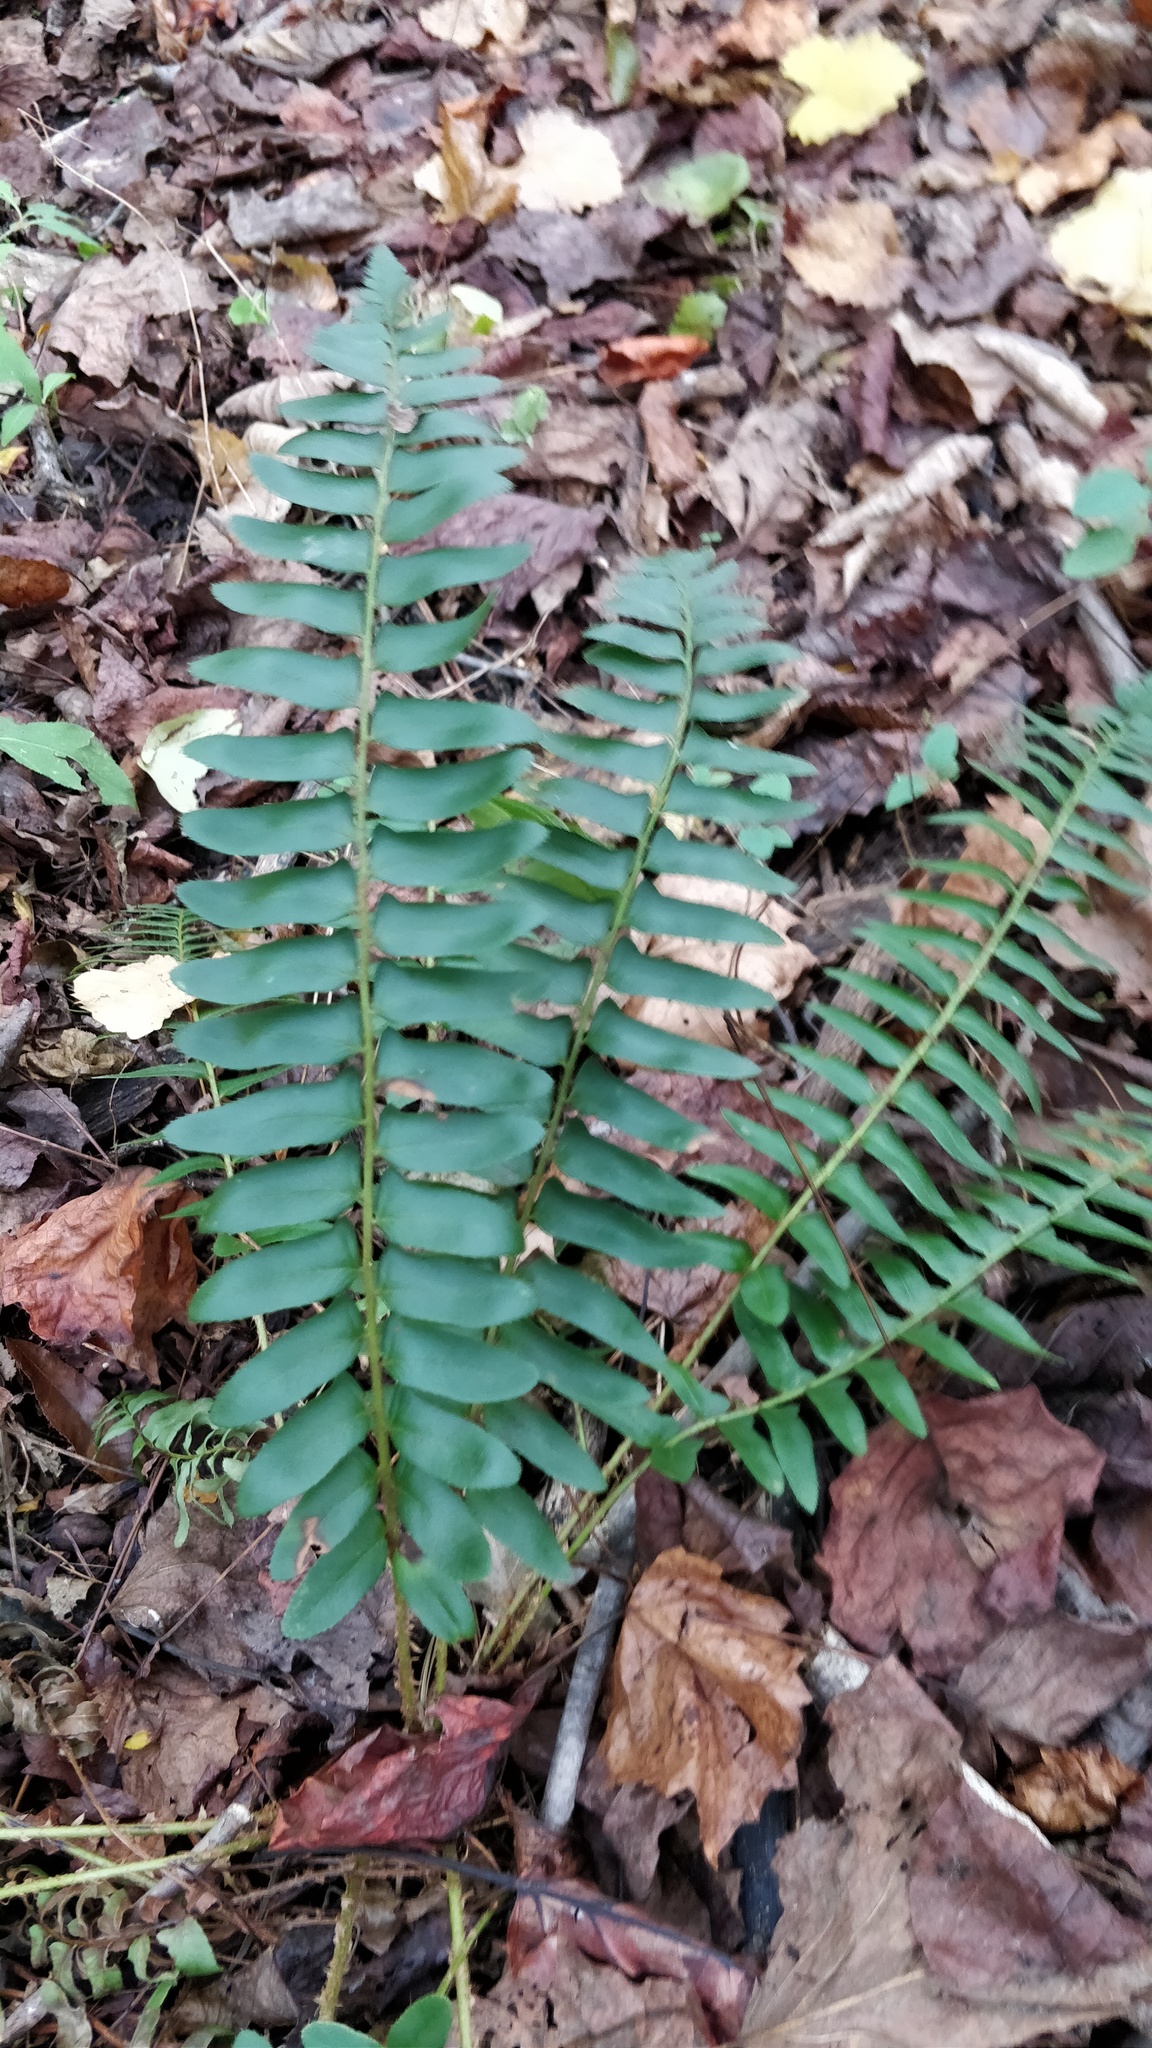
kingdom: Plantae
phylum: Tracheophyta
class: Polypodiopsida
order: Polypodiales
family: Dryopteridaceae
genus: Polystichum
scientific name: Polystichum acrostichoides
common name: Christmas fern
